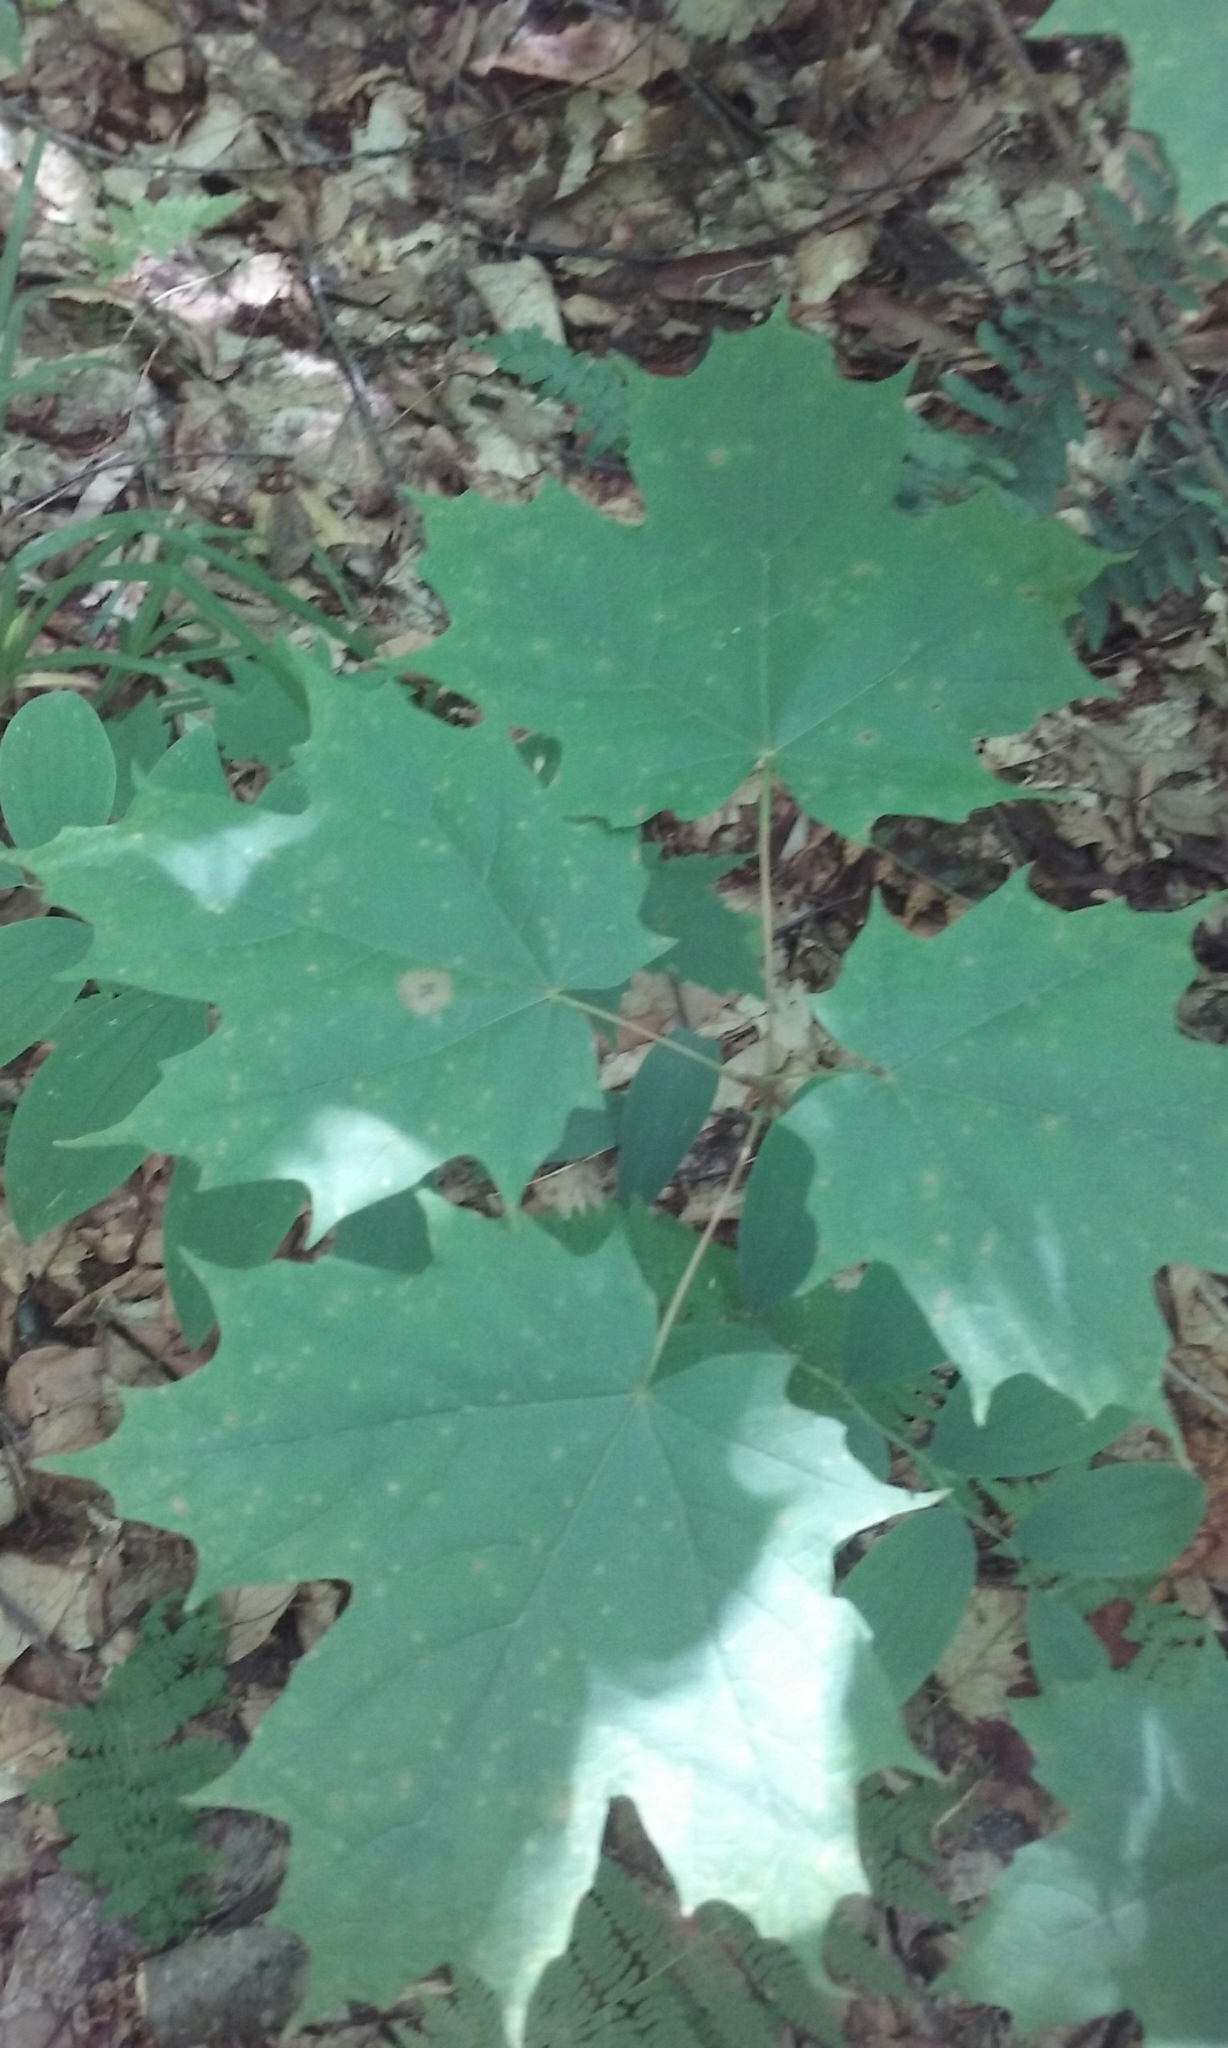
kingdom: Plantae
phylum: Tracheophyta
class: Magnoliopsida
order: Sapindales
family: Sapindaceae
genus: Acer
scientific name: Acer saccharum
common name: Sugar maple
